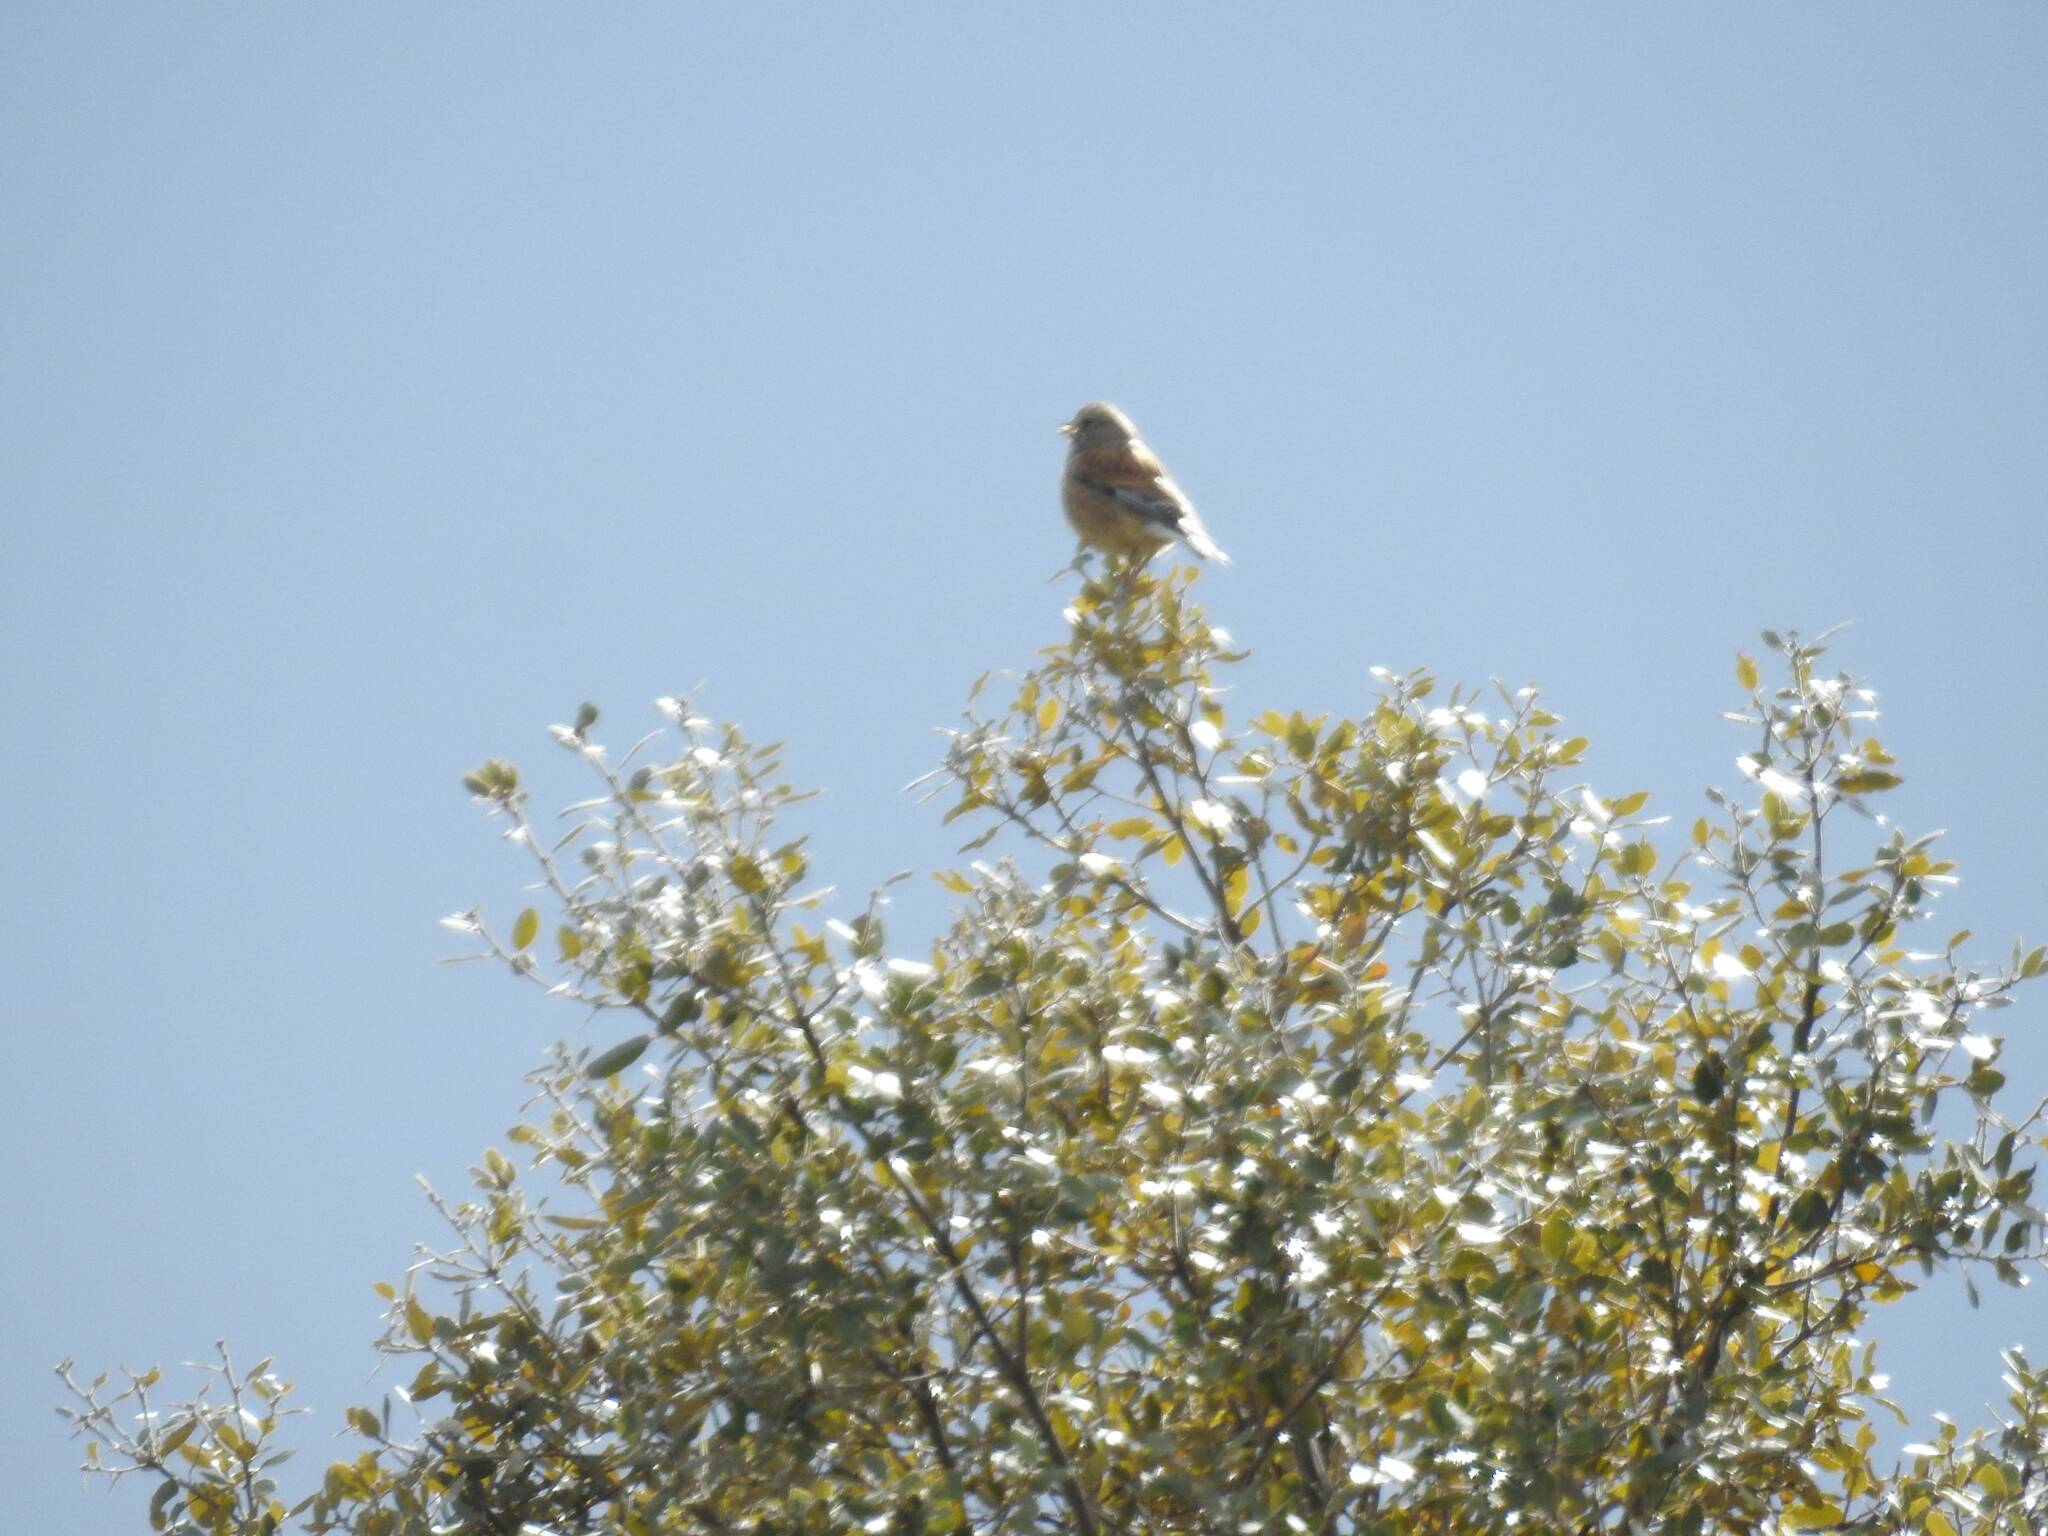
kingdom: Animalia
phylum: Chordata
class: Aves
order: Passeriformes
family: Fringillidae
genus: Linaria
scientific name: Linaria cannabina
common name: Common linnet
